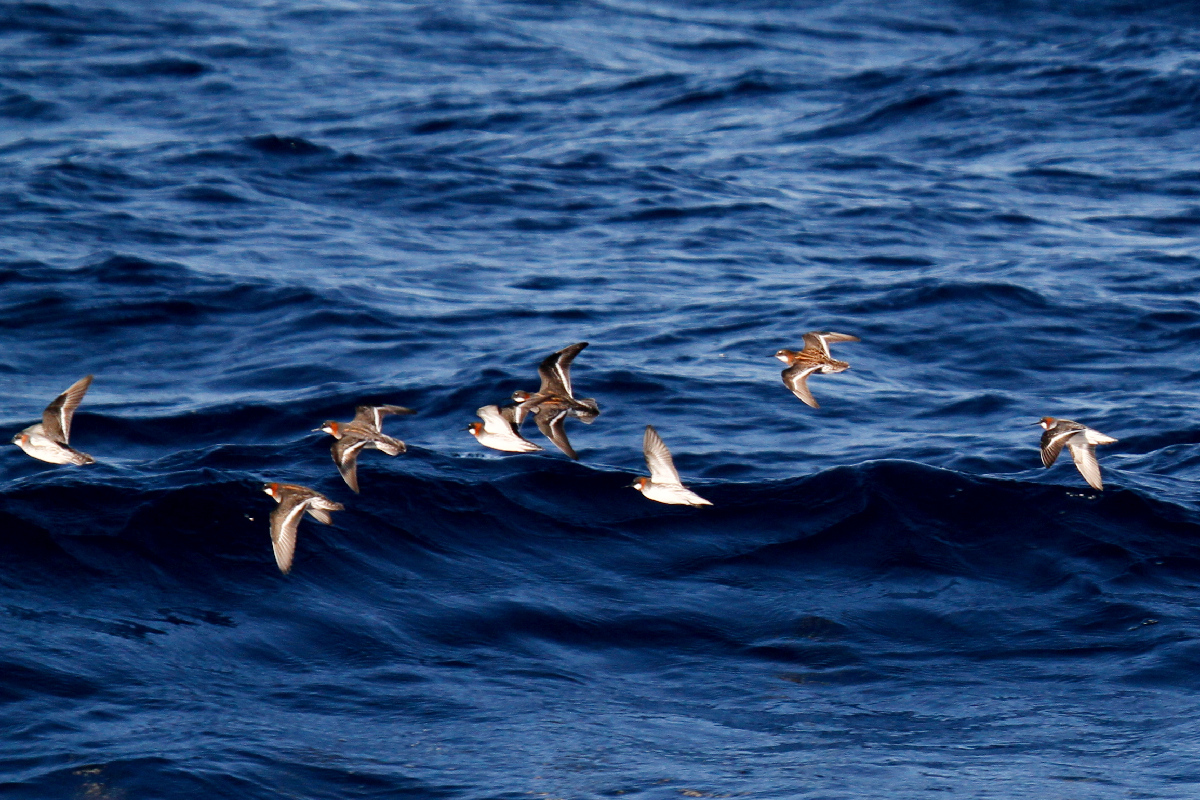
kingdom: Animalia
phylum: Chordata
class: Aves
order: Charadriiformes
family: Scolopacidae
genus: Phalaropus
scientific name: Phalaropus lobatus
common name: Red-necked phalarope
